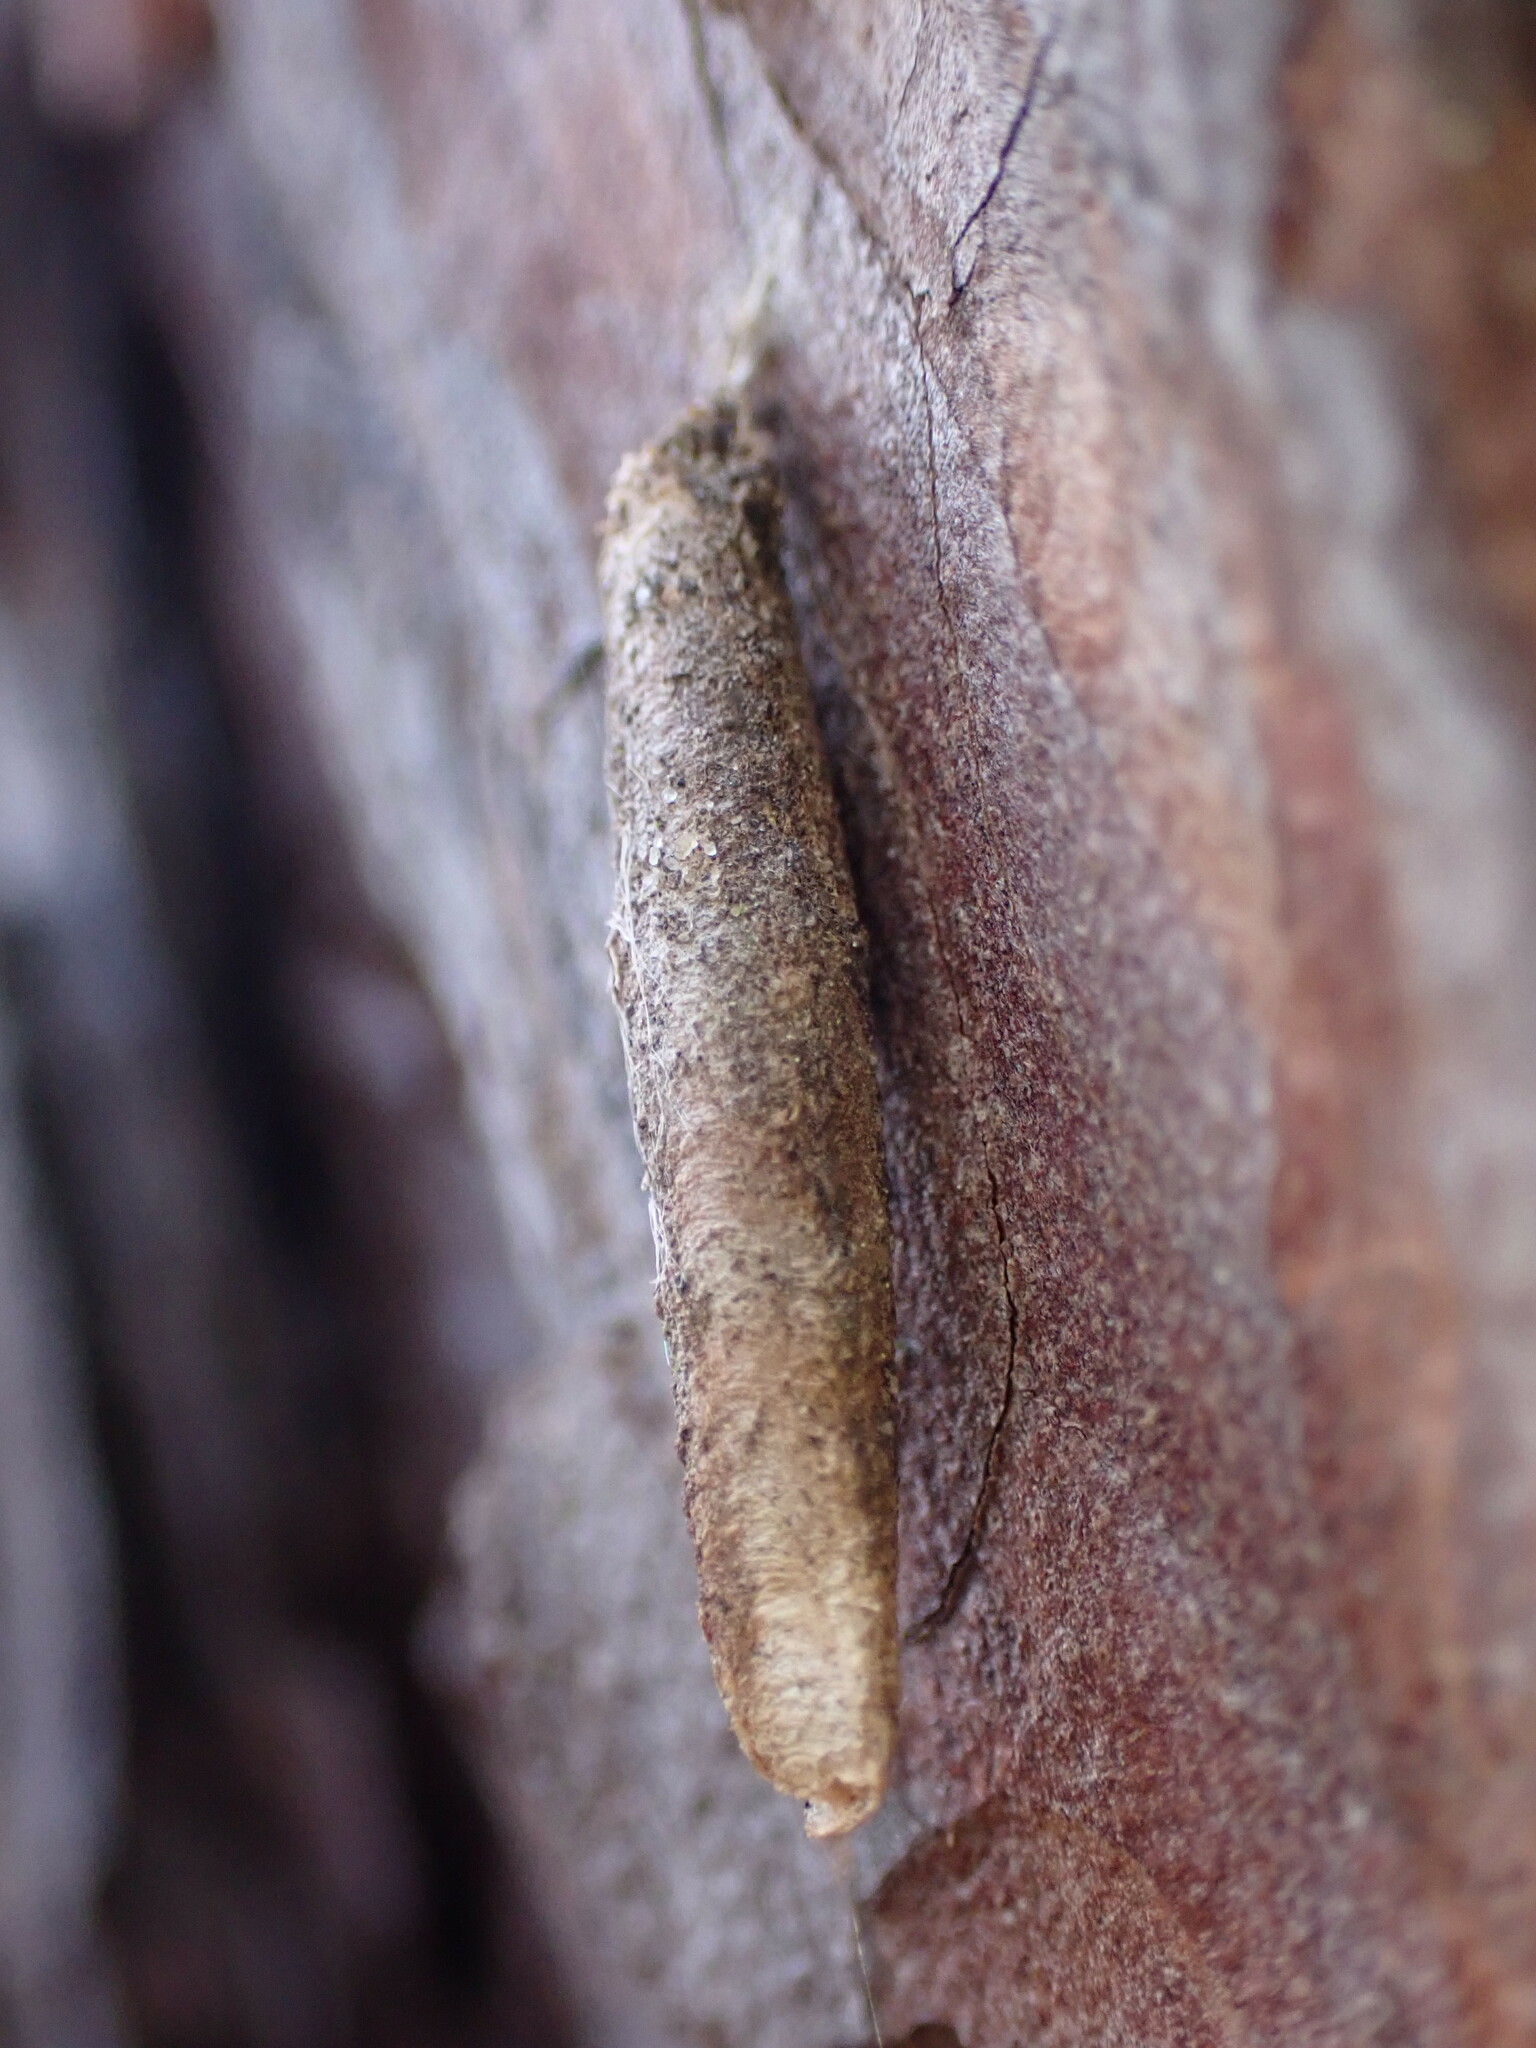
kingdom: Animalia
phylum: Arthropoda
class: Insecta
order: Lepidoptera
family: Psychidae
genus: Taleporia
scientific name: Taleporia tubulosa
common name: Brown smoke
